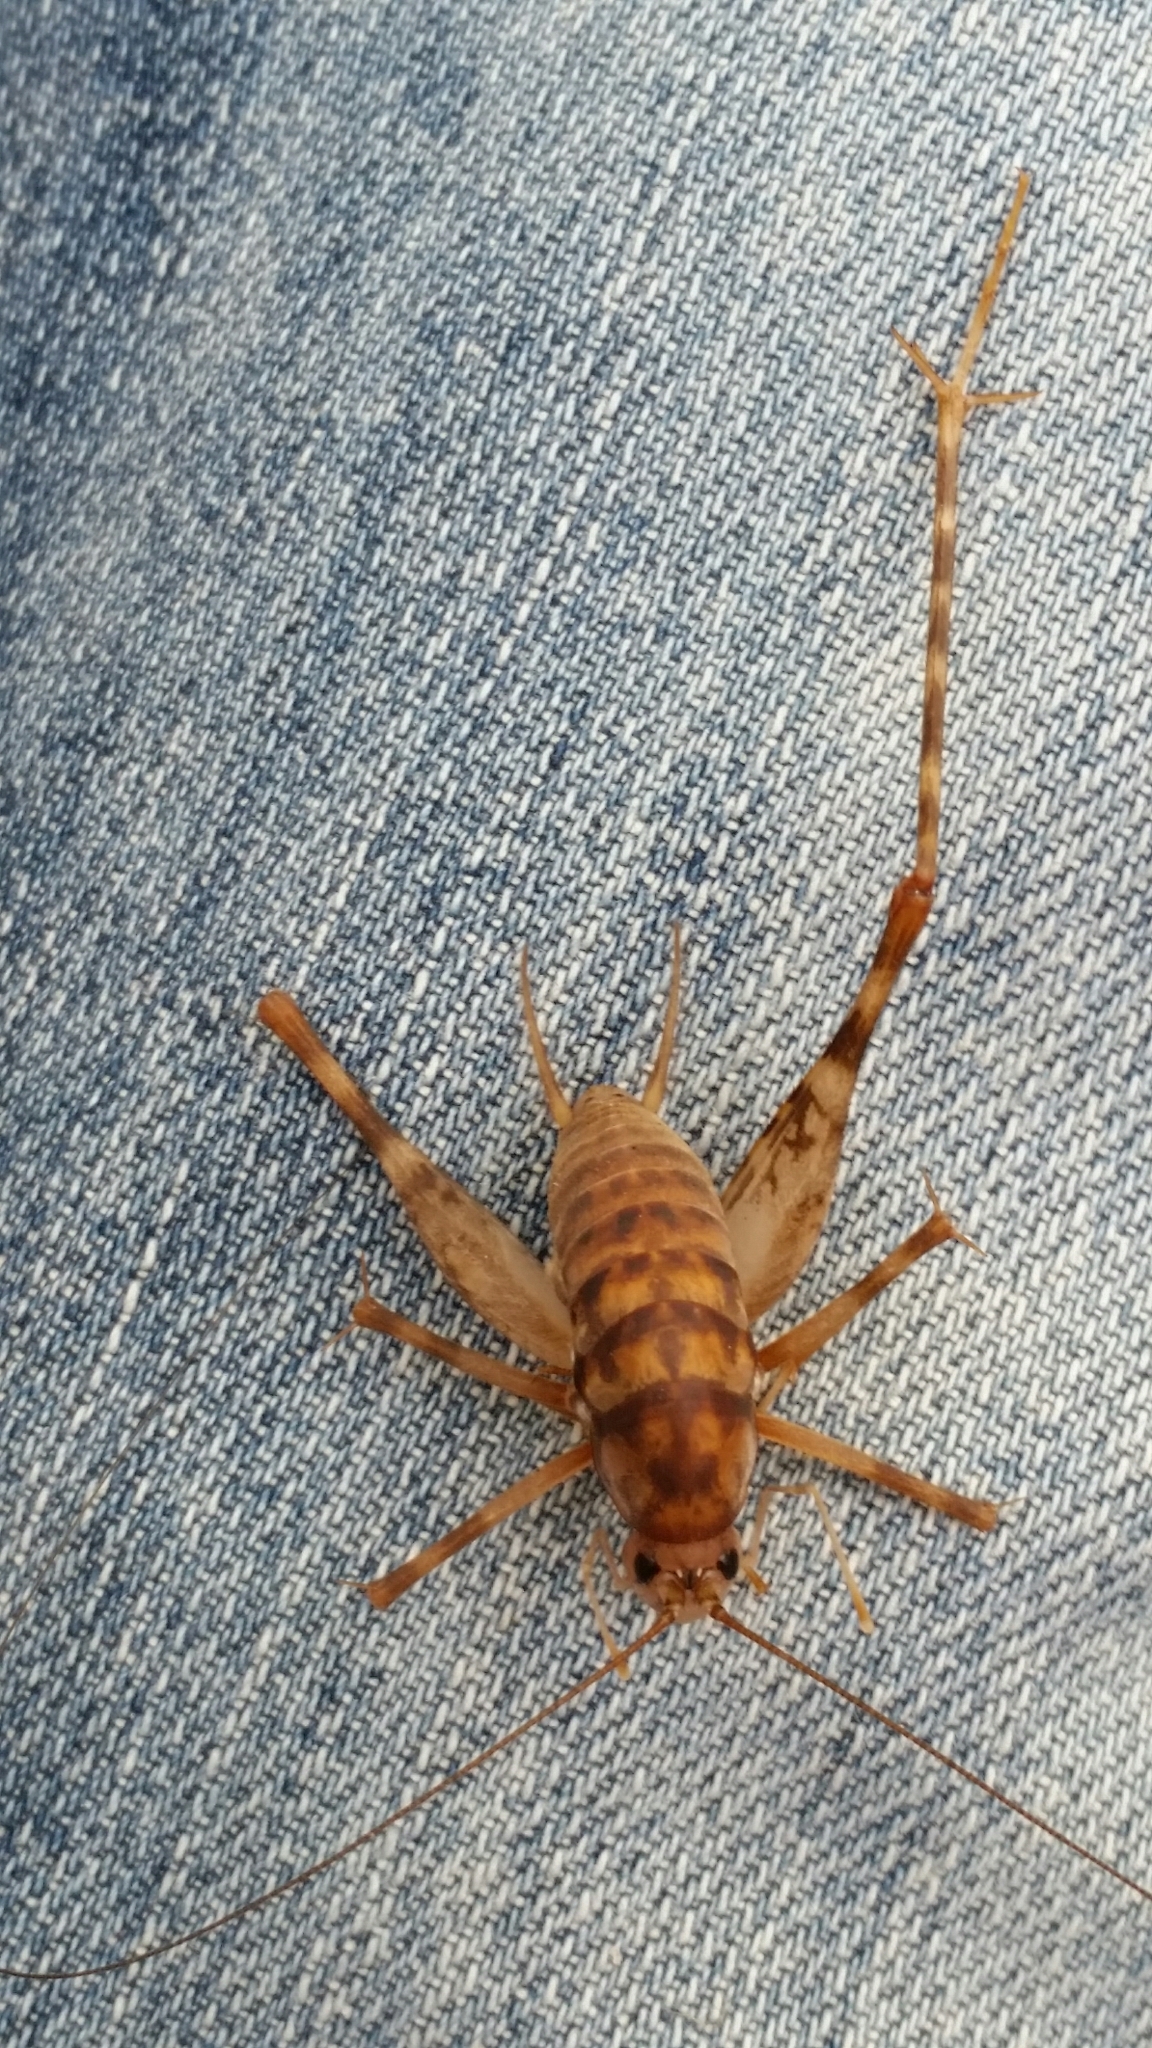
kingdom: Animalia
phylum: Arthropoda
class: Insecta
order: Orthoptera
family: Rhaphidophoridae
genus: Tachycines
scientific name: Tachycines asynamorus
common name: Greenhouse camel cricket
